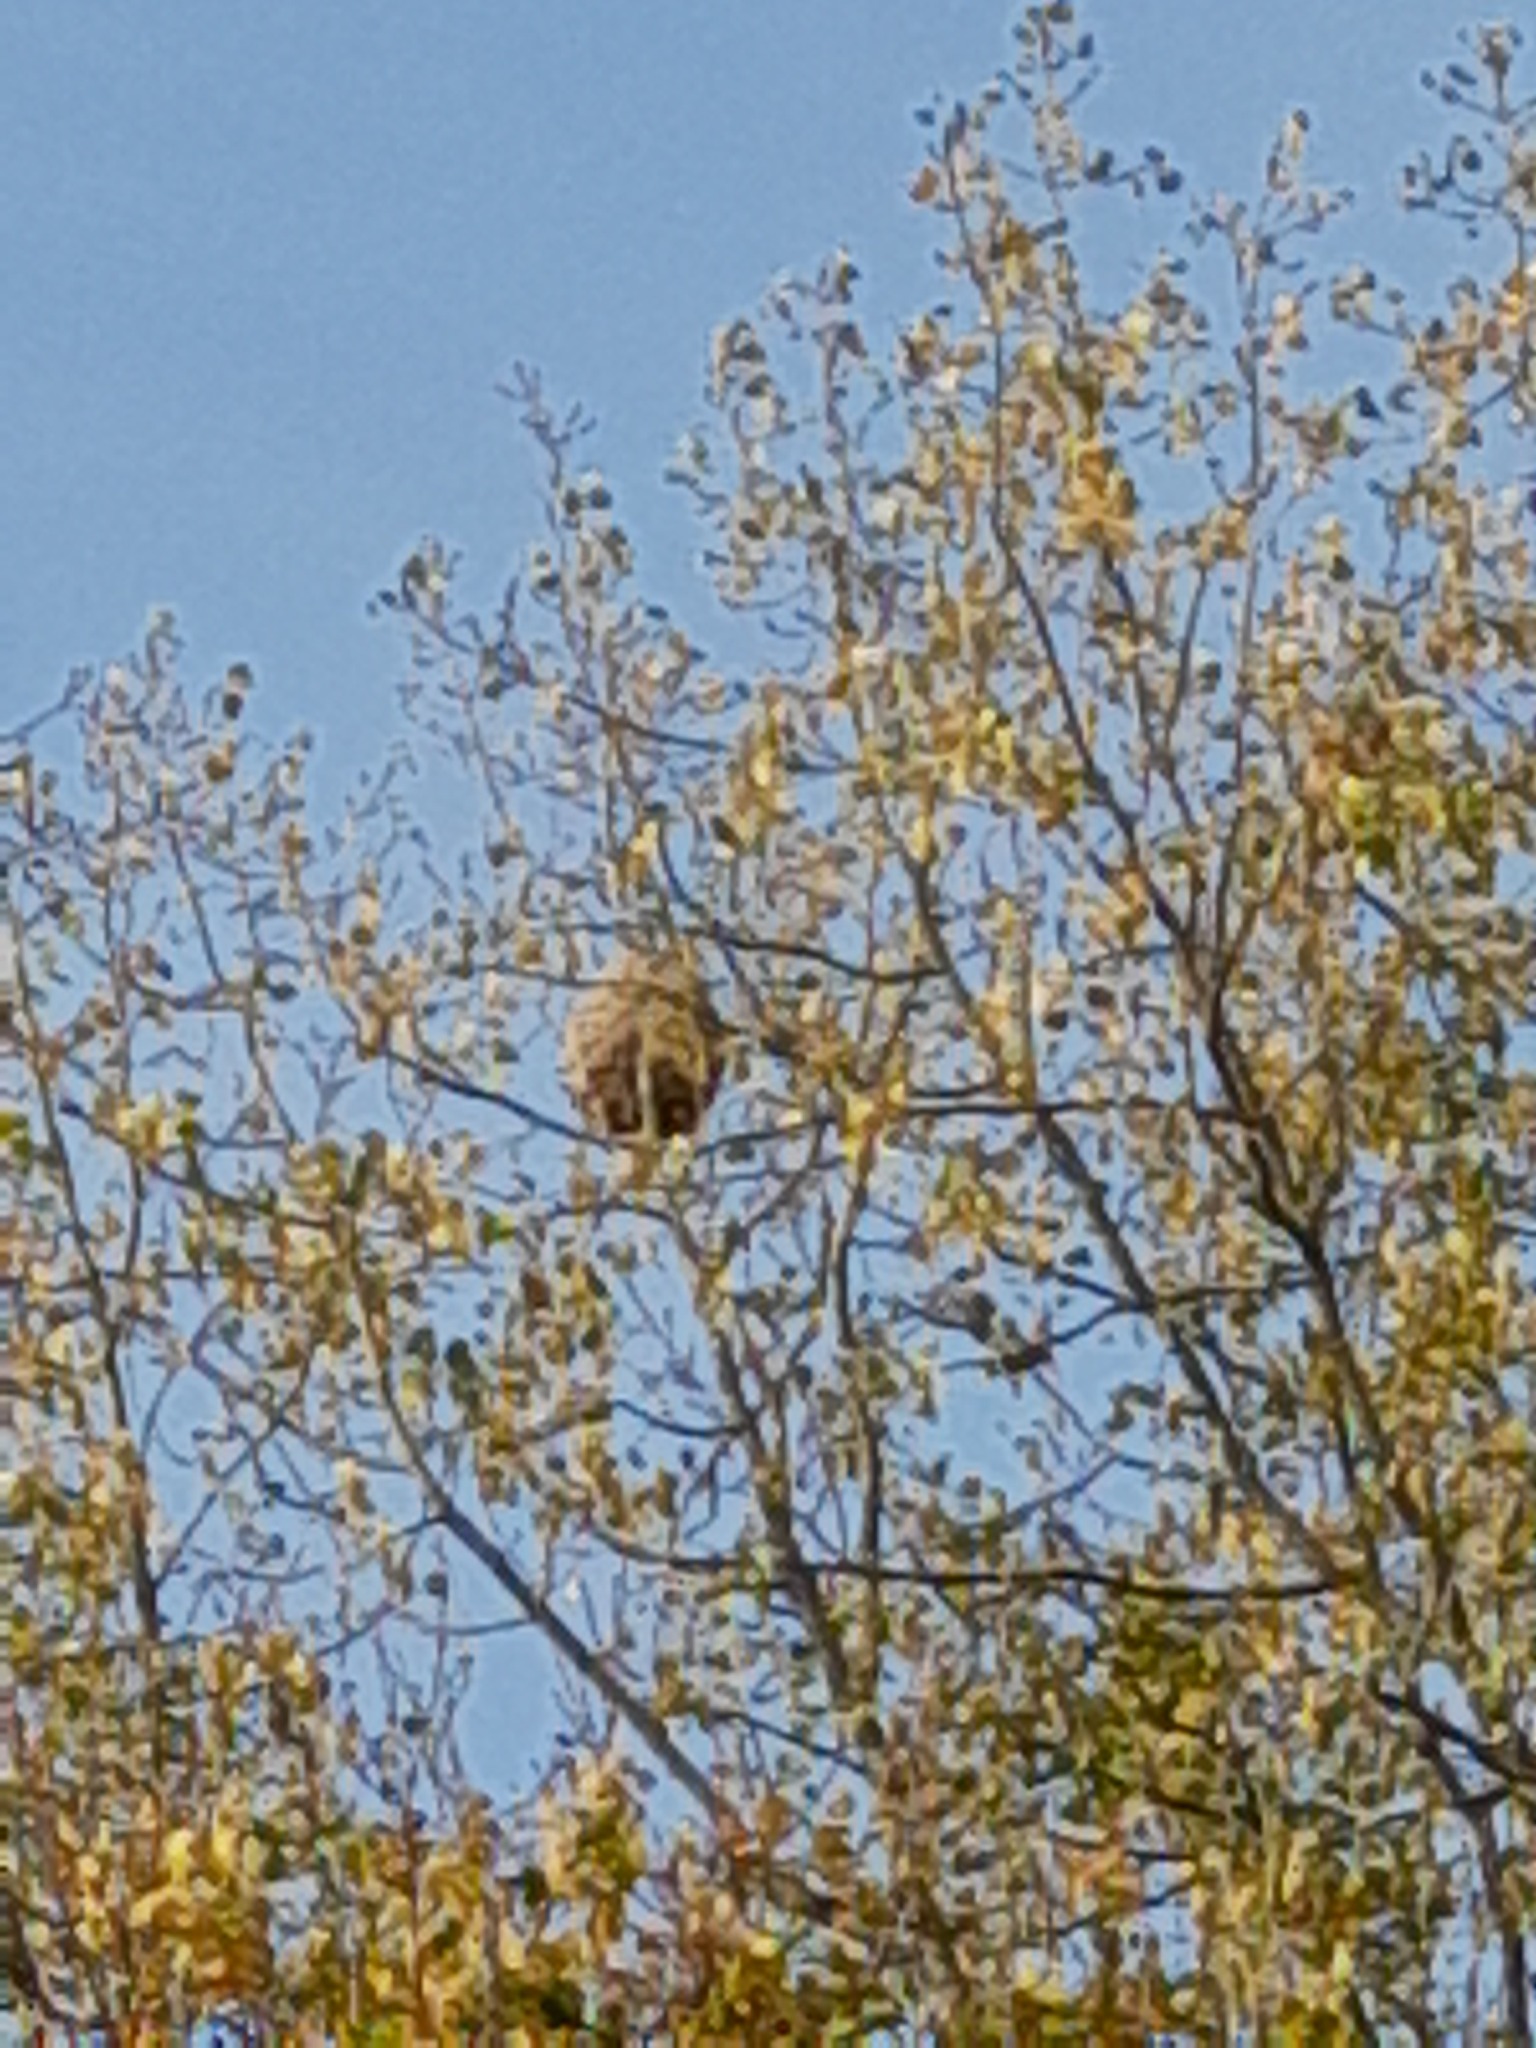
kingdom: Animalia
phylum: Arthropoda
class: Insecta
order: Hymenoptera
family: Vespidae
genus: Vespa
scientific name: Vespa velutina
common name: Asian hornet
